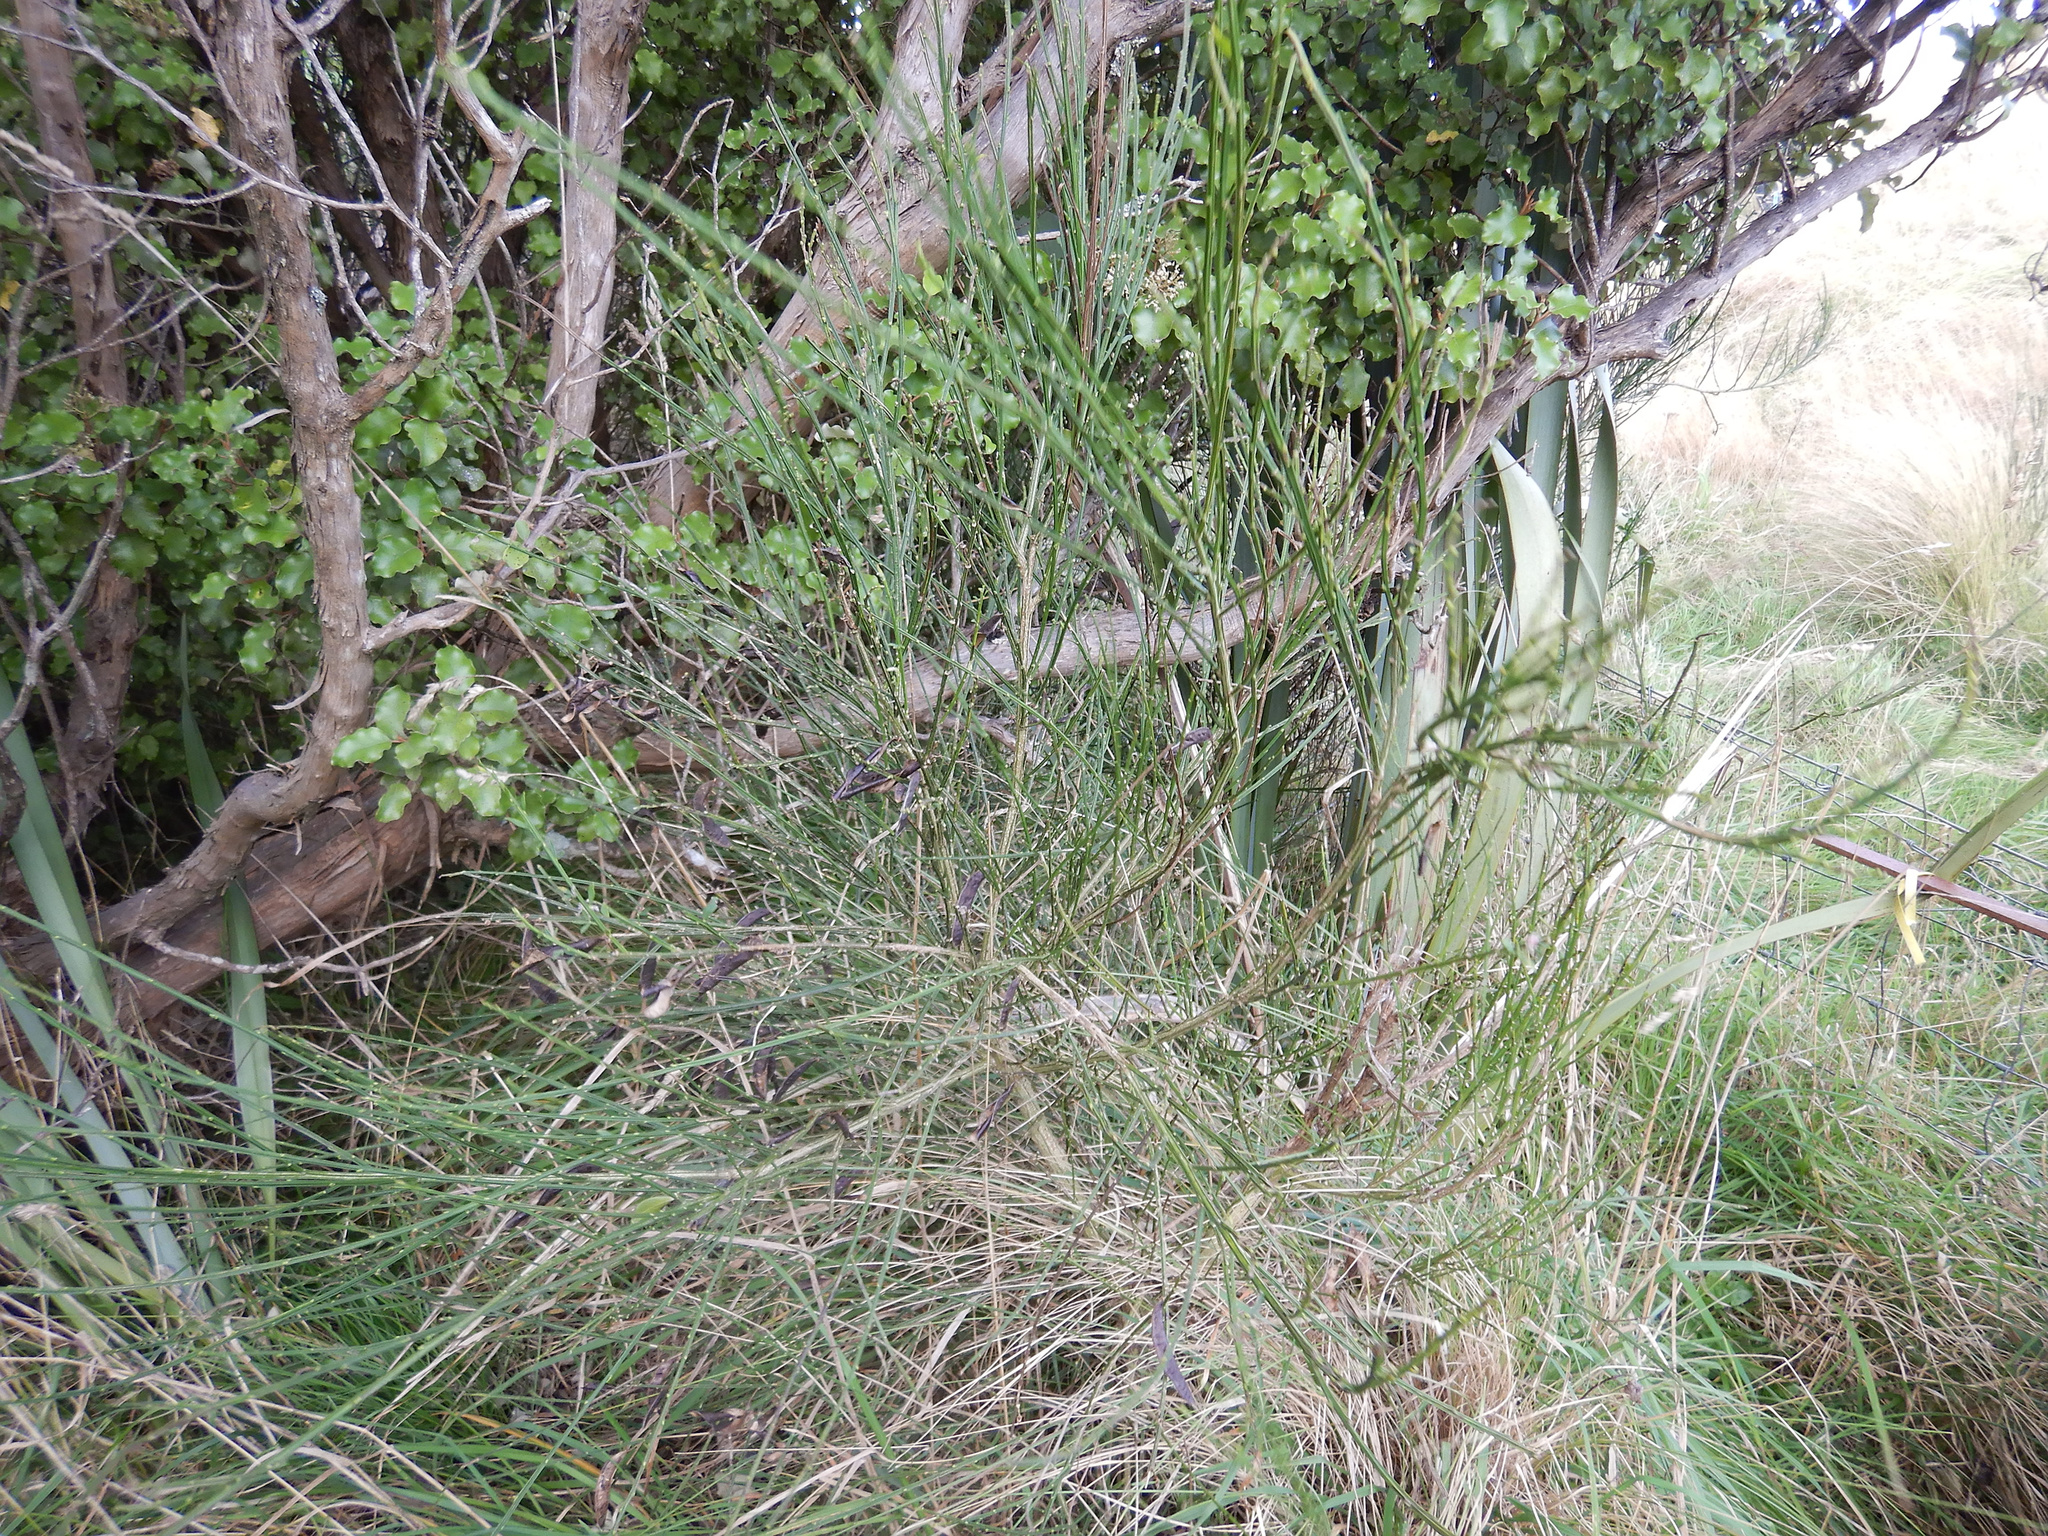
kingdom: Plantae
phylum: Tracheophyta
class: Magnoliopsida
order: Fabales
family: Fabaceae
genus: Cytisus
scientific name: Cytisus scoparius
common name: Scotch broom
